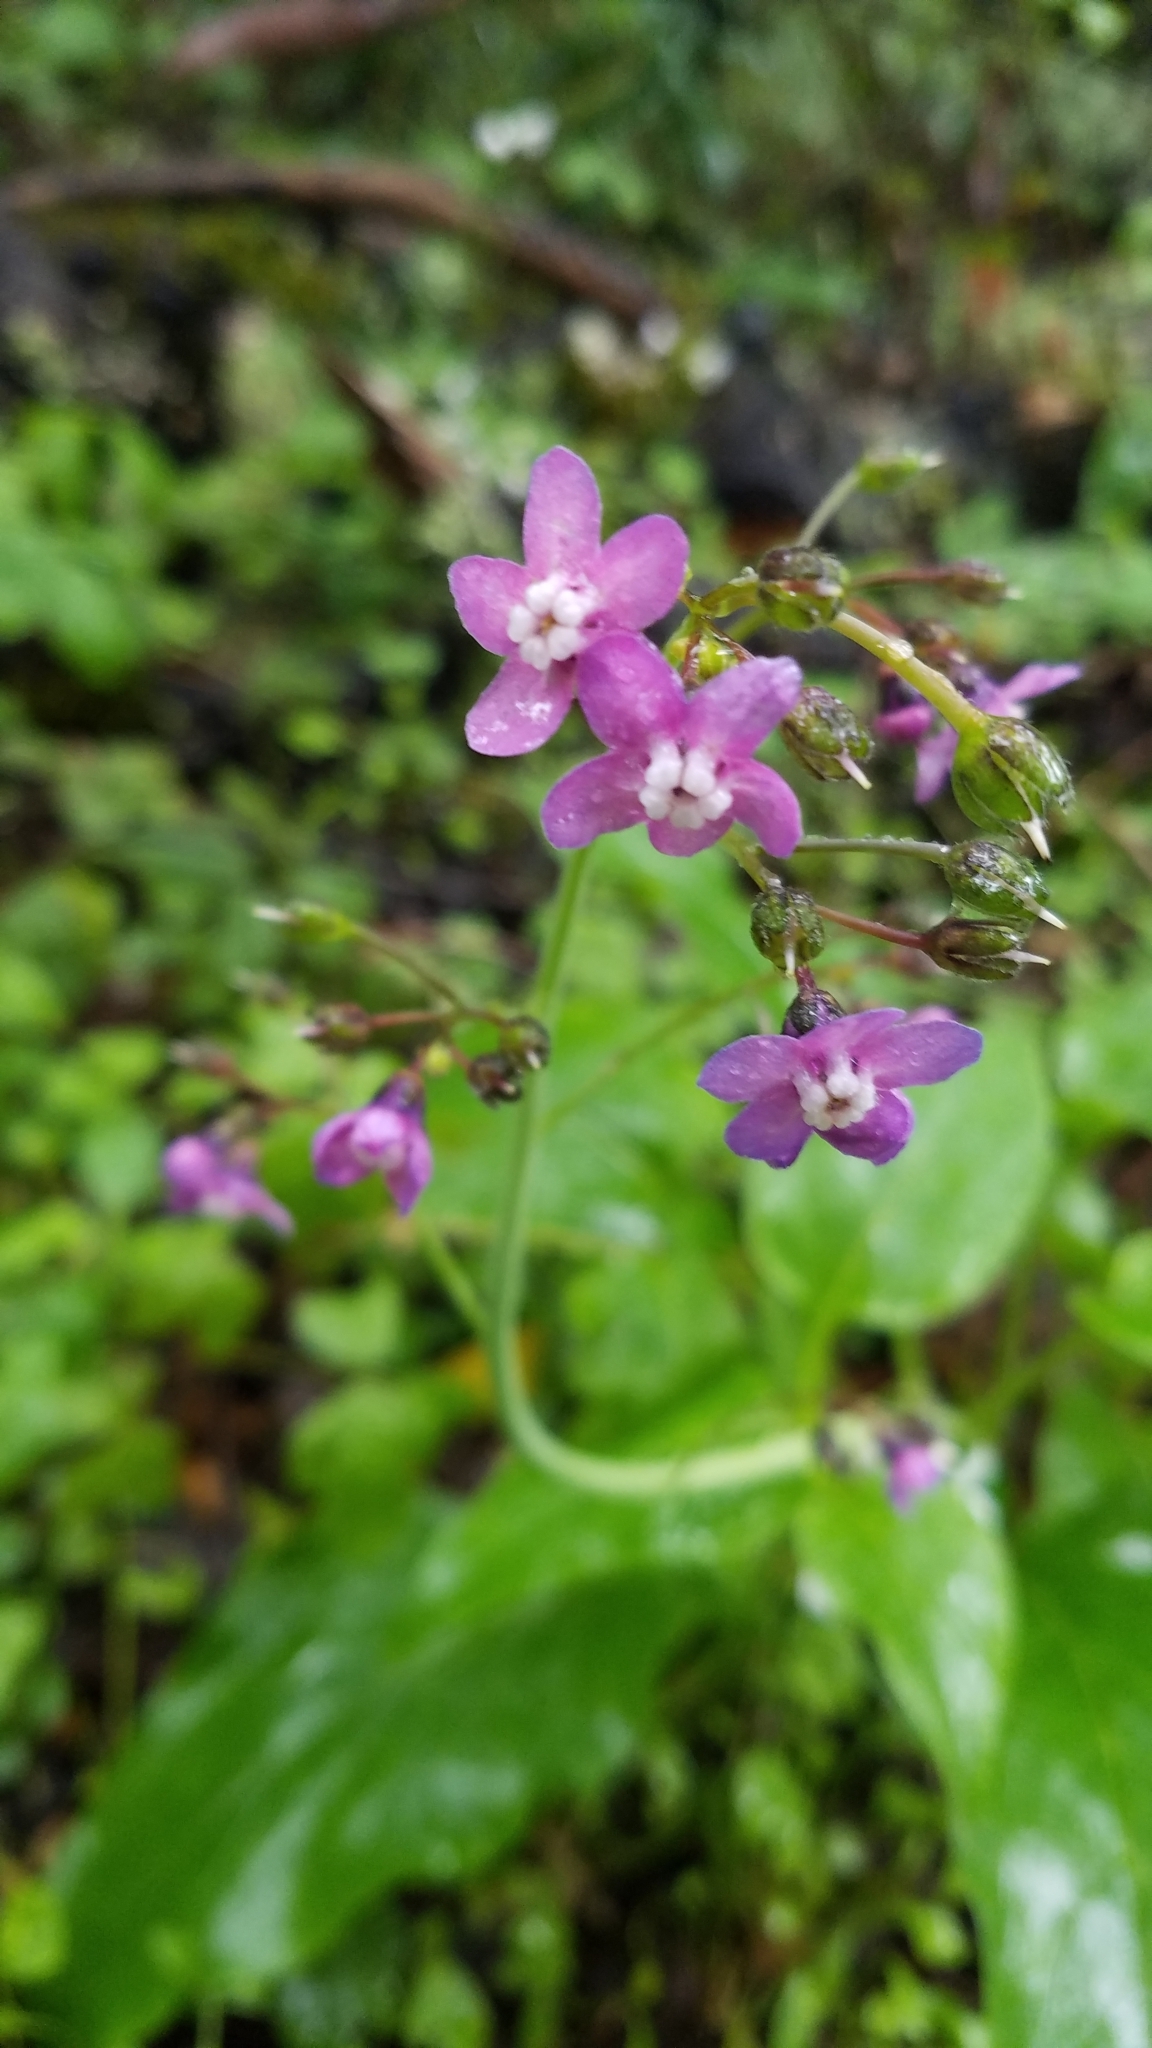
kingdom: Plantae
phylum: Tracheophyta
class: Magnoliopsida
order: Boraginales
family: Boraginaceae
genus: Adelinia
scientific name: Adelinia grande
